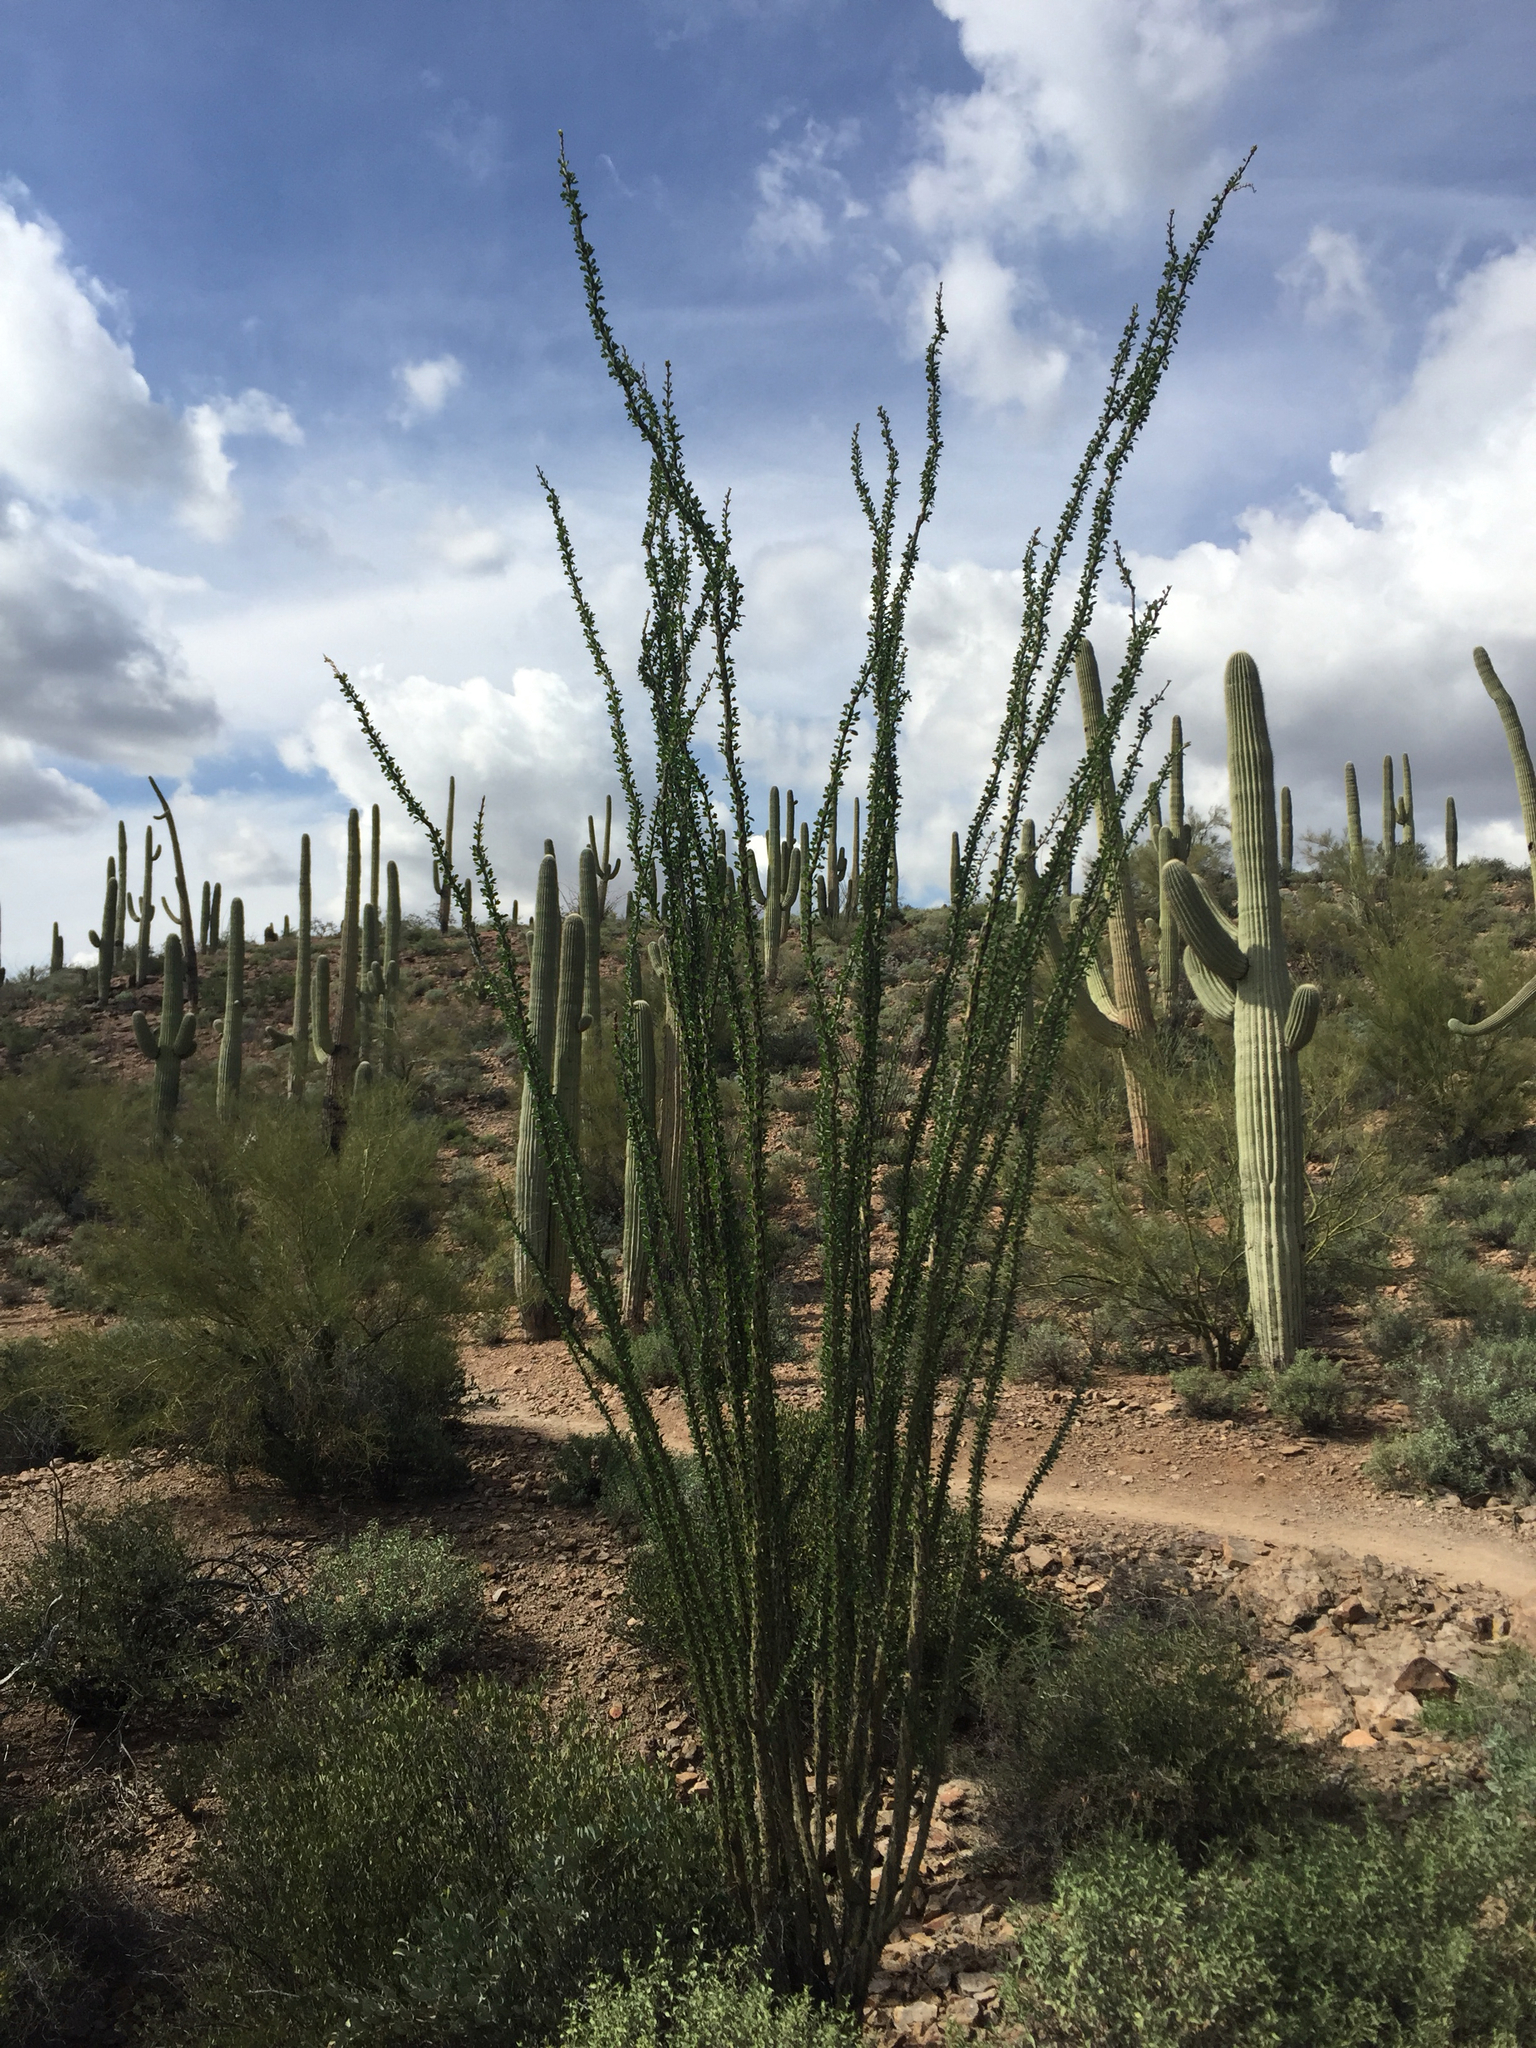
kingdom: Plantae
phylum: Tracheophyta
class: Magnoliopsida
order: Ericales
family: Fouquieriaceae
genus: Fouquieria
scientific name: Fouquieria splendens
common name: Vine-cactus
